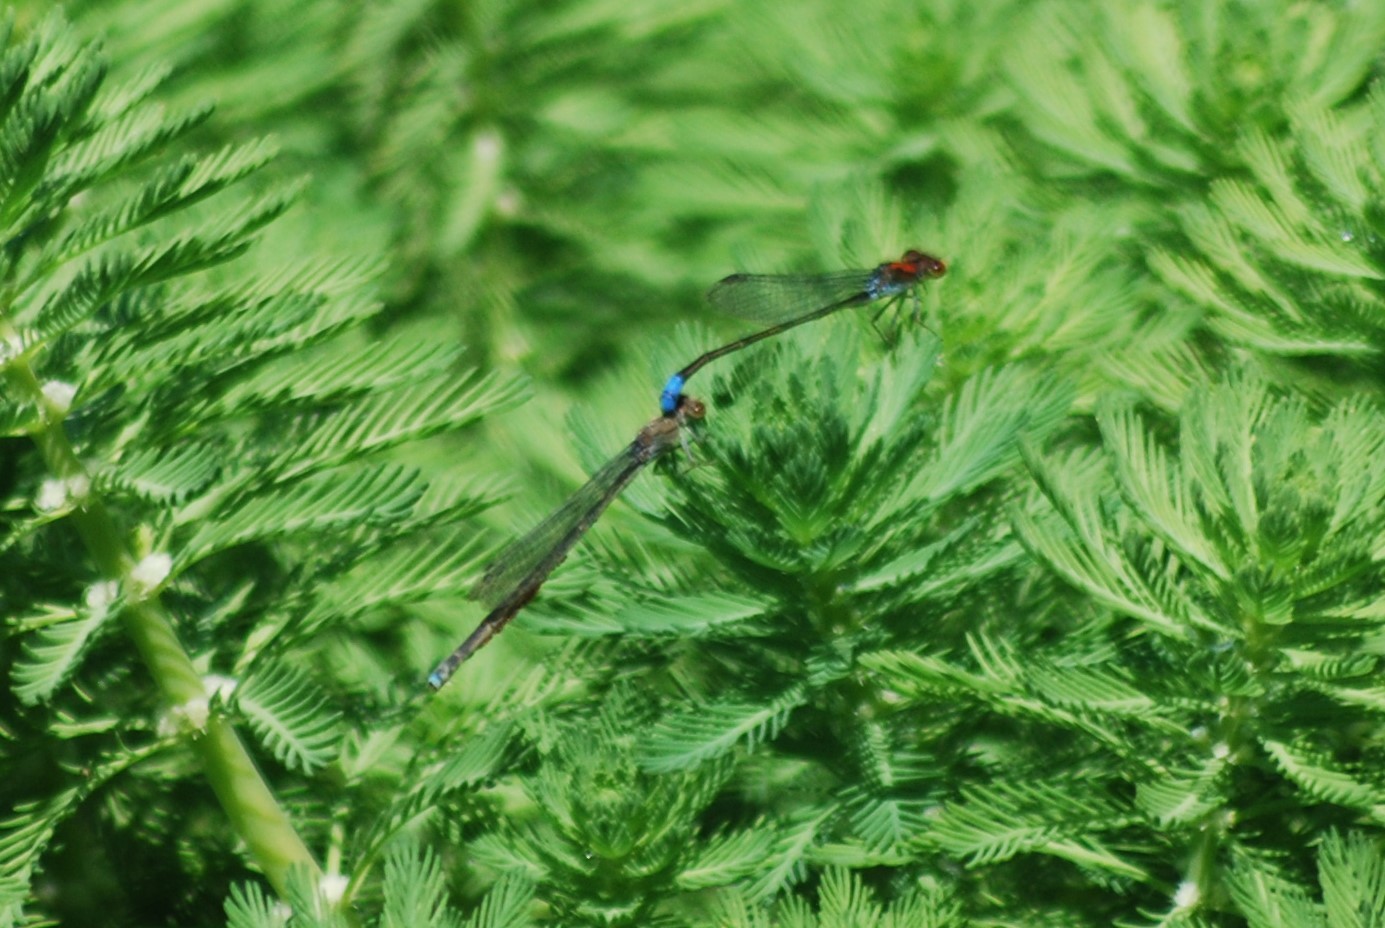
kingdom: Animalia
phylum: Arthropoda
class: Insecta
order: Odonata
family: Coenagrionidae
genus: Pseudagrion
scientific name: Pseudagrion massaicum
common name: Masai sprite
